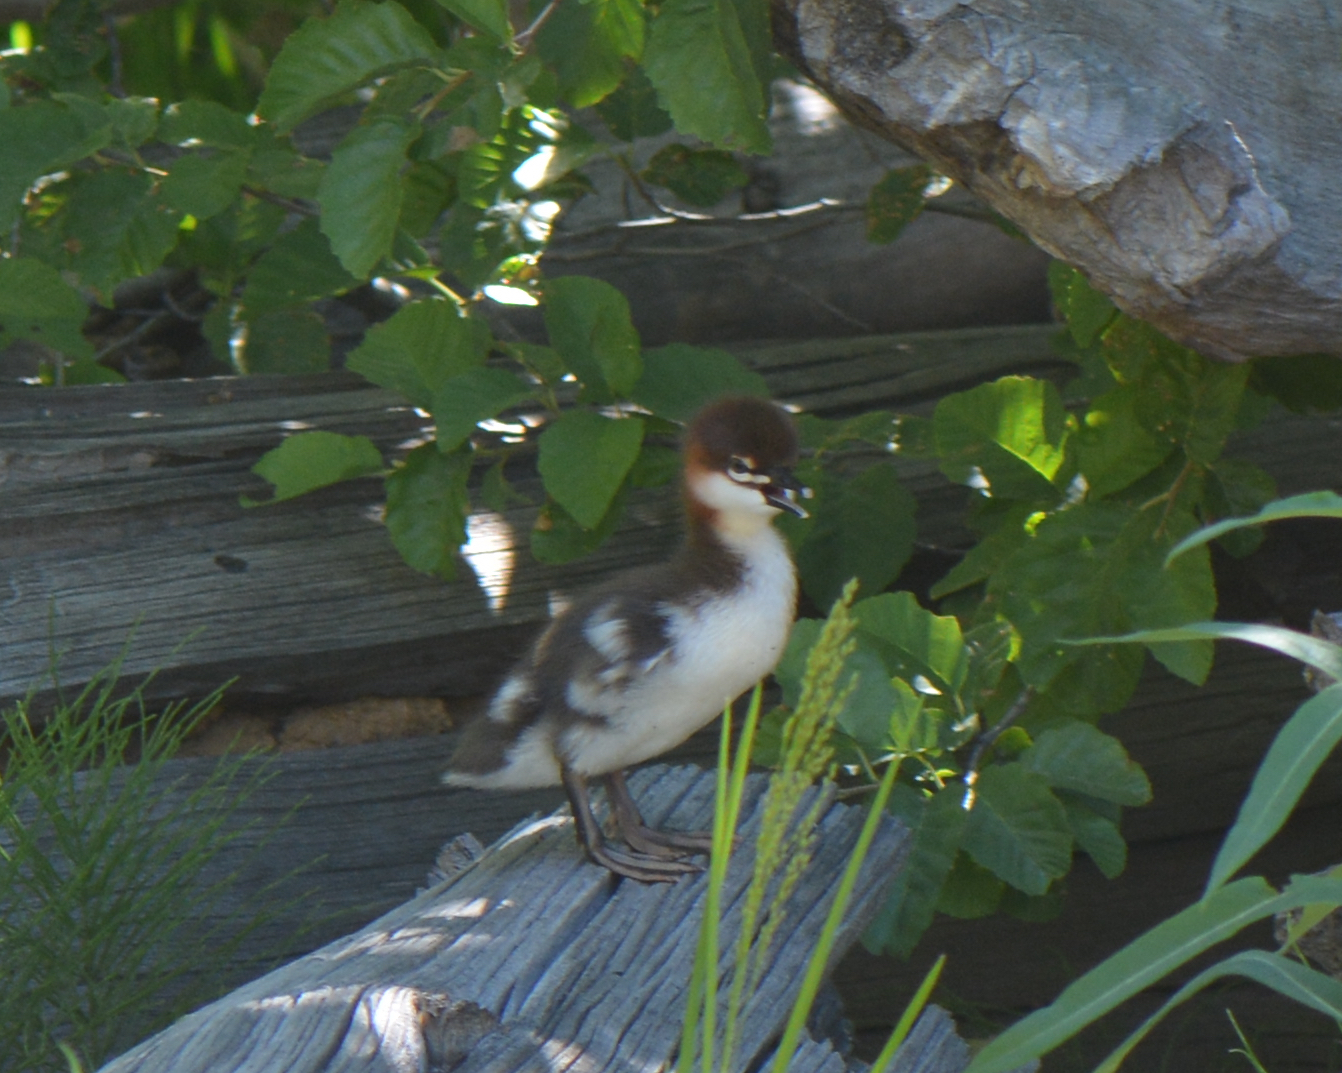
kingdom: Animalia
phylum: Chordata
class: Aves
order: Anseriformes
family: Anatidae
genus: Mergus
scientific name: Mergus merganser
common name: Common merganser
